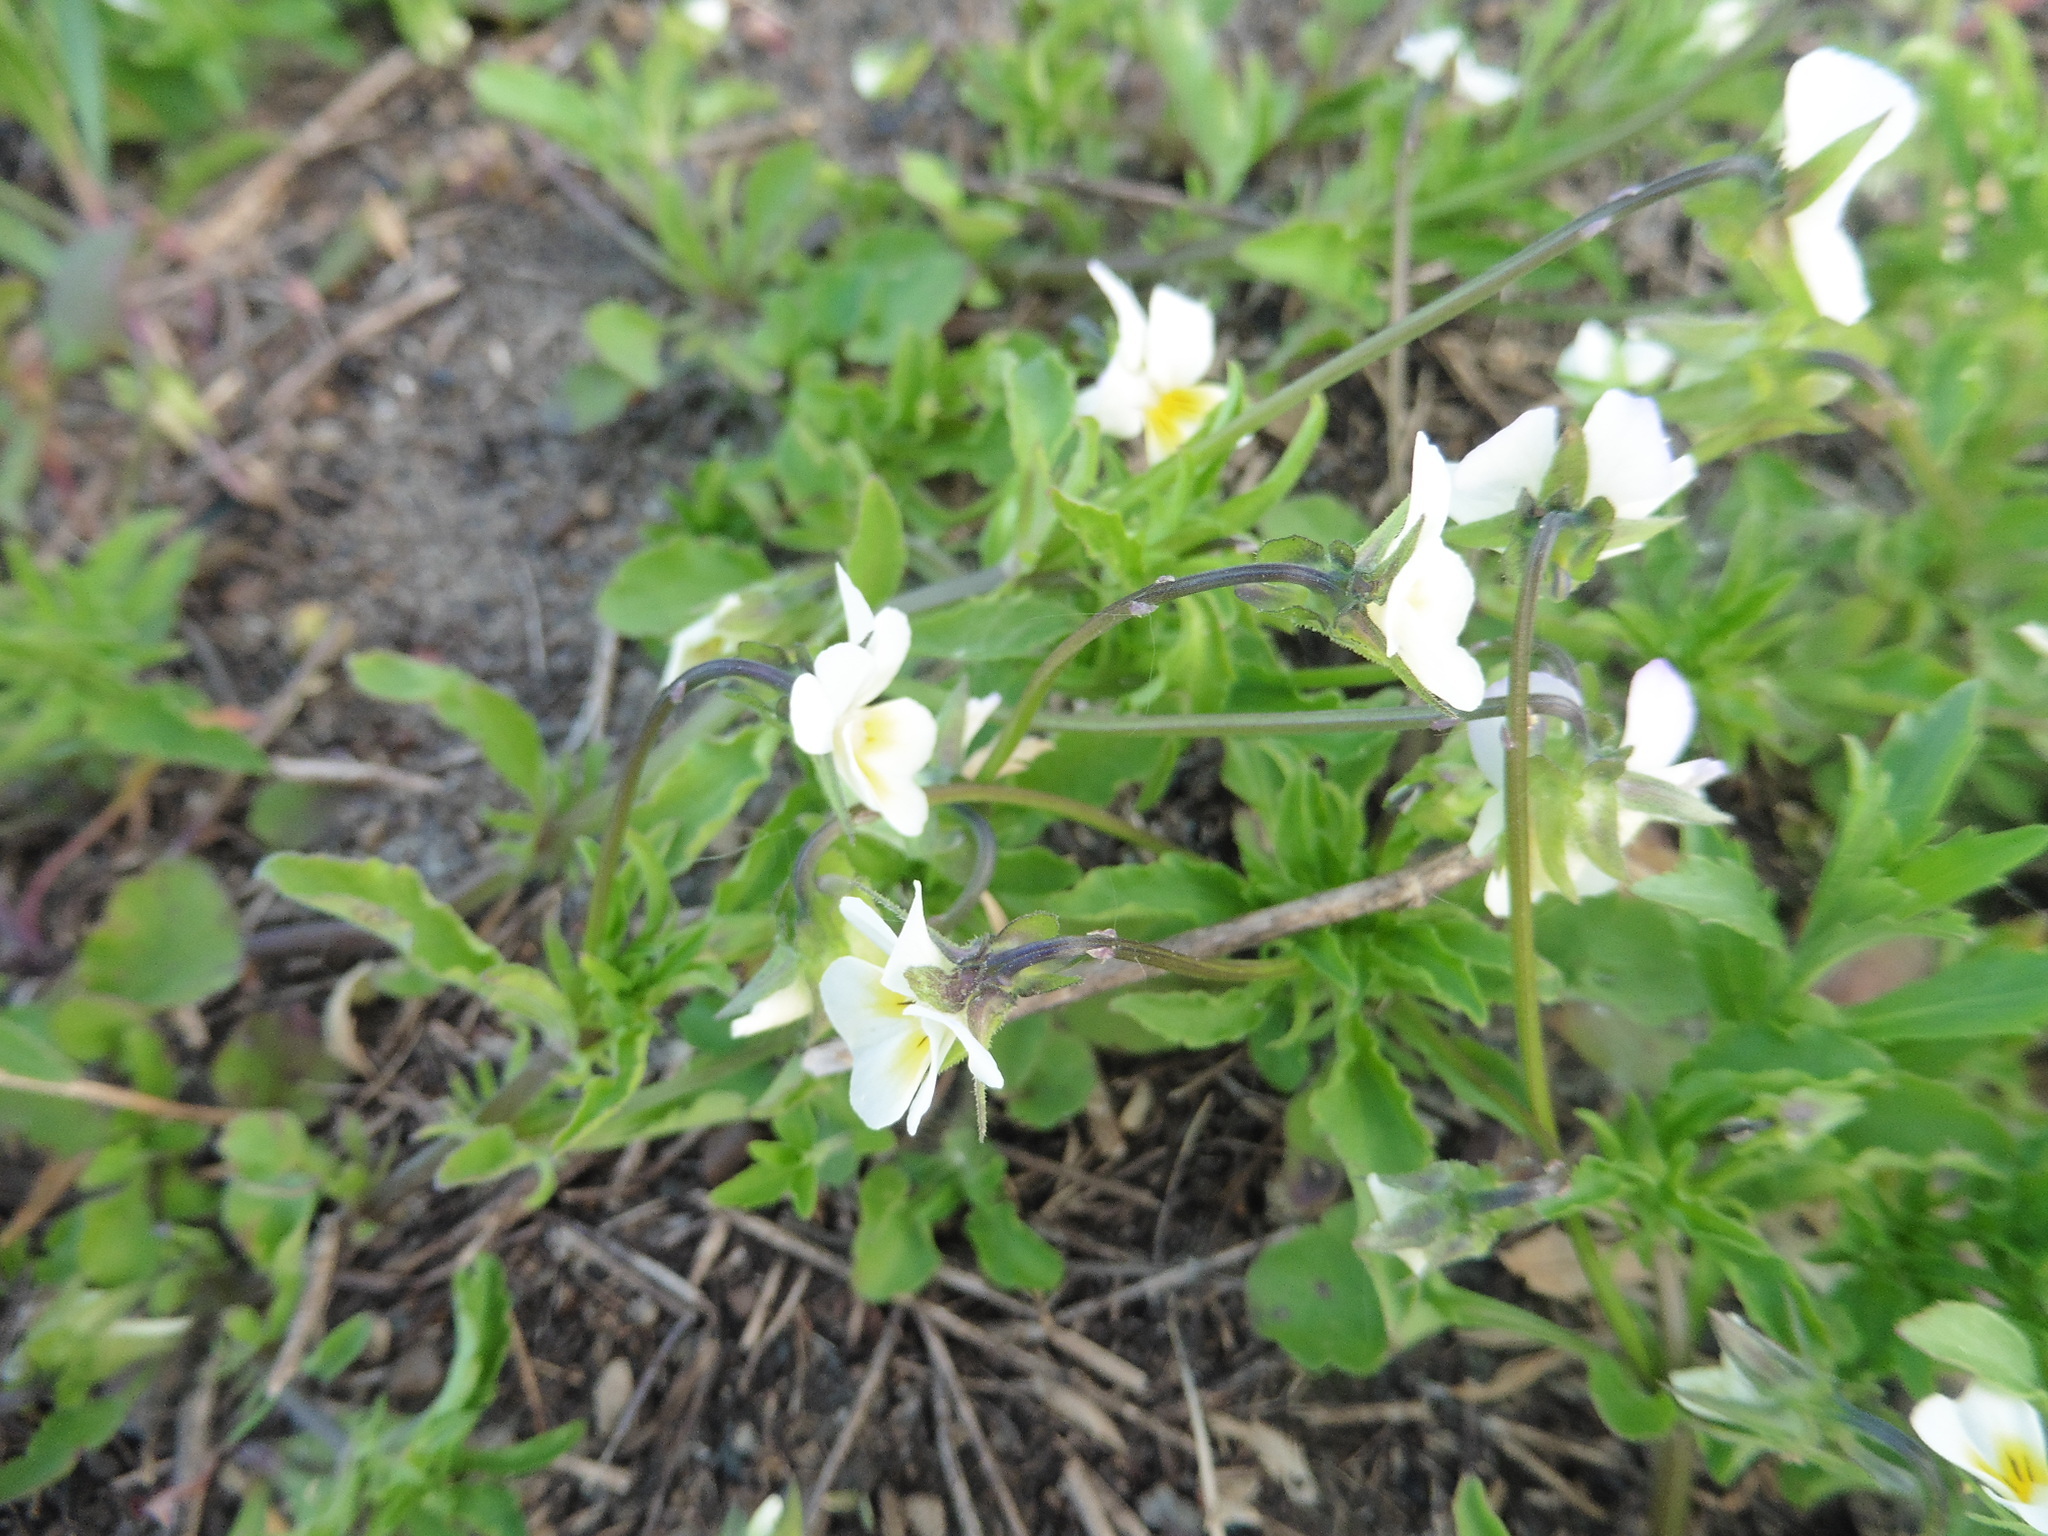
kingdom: Plantae
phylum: Tracheophyta
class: Magnoliopsida
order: Malpighiales
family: Violaceae
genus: Viola
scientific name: Viola arvensis
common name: Field pansy
